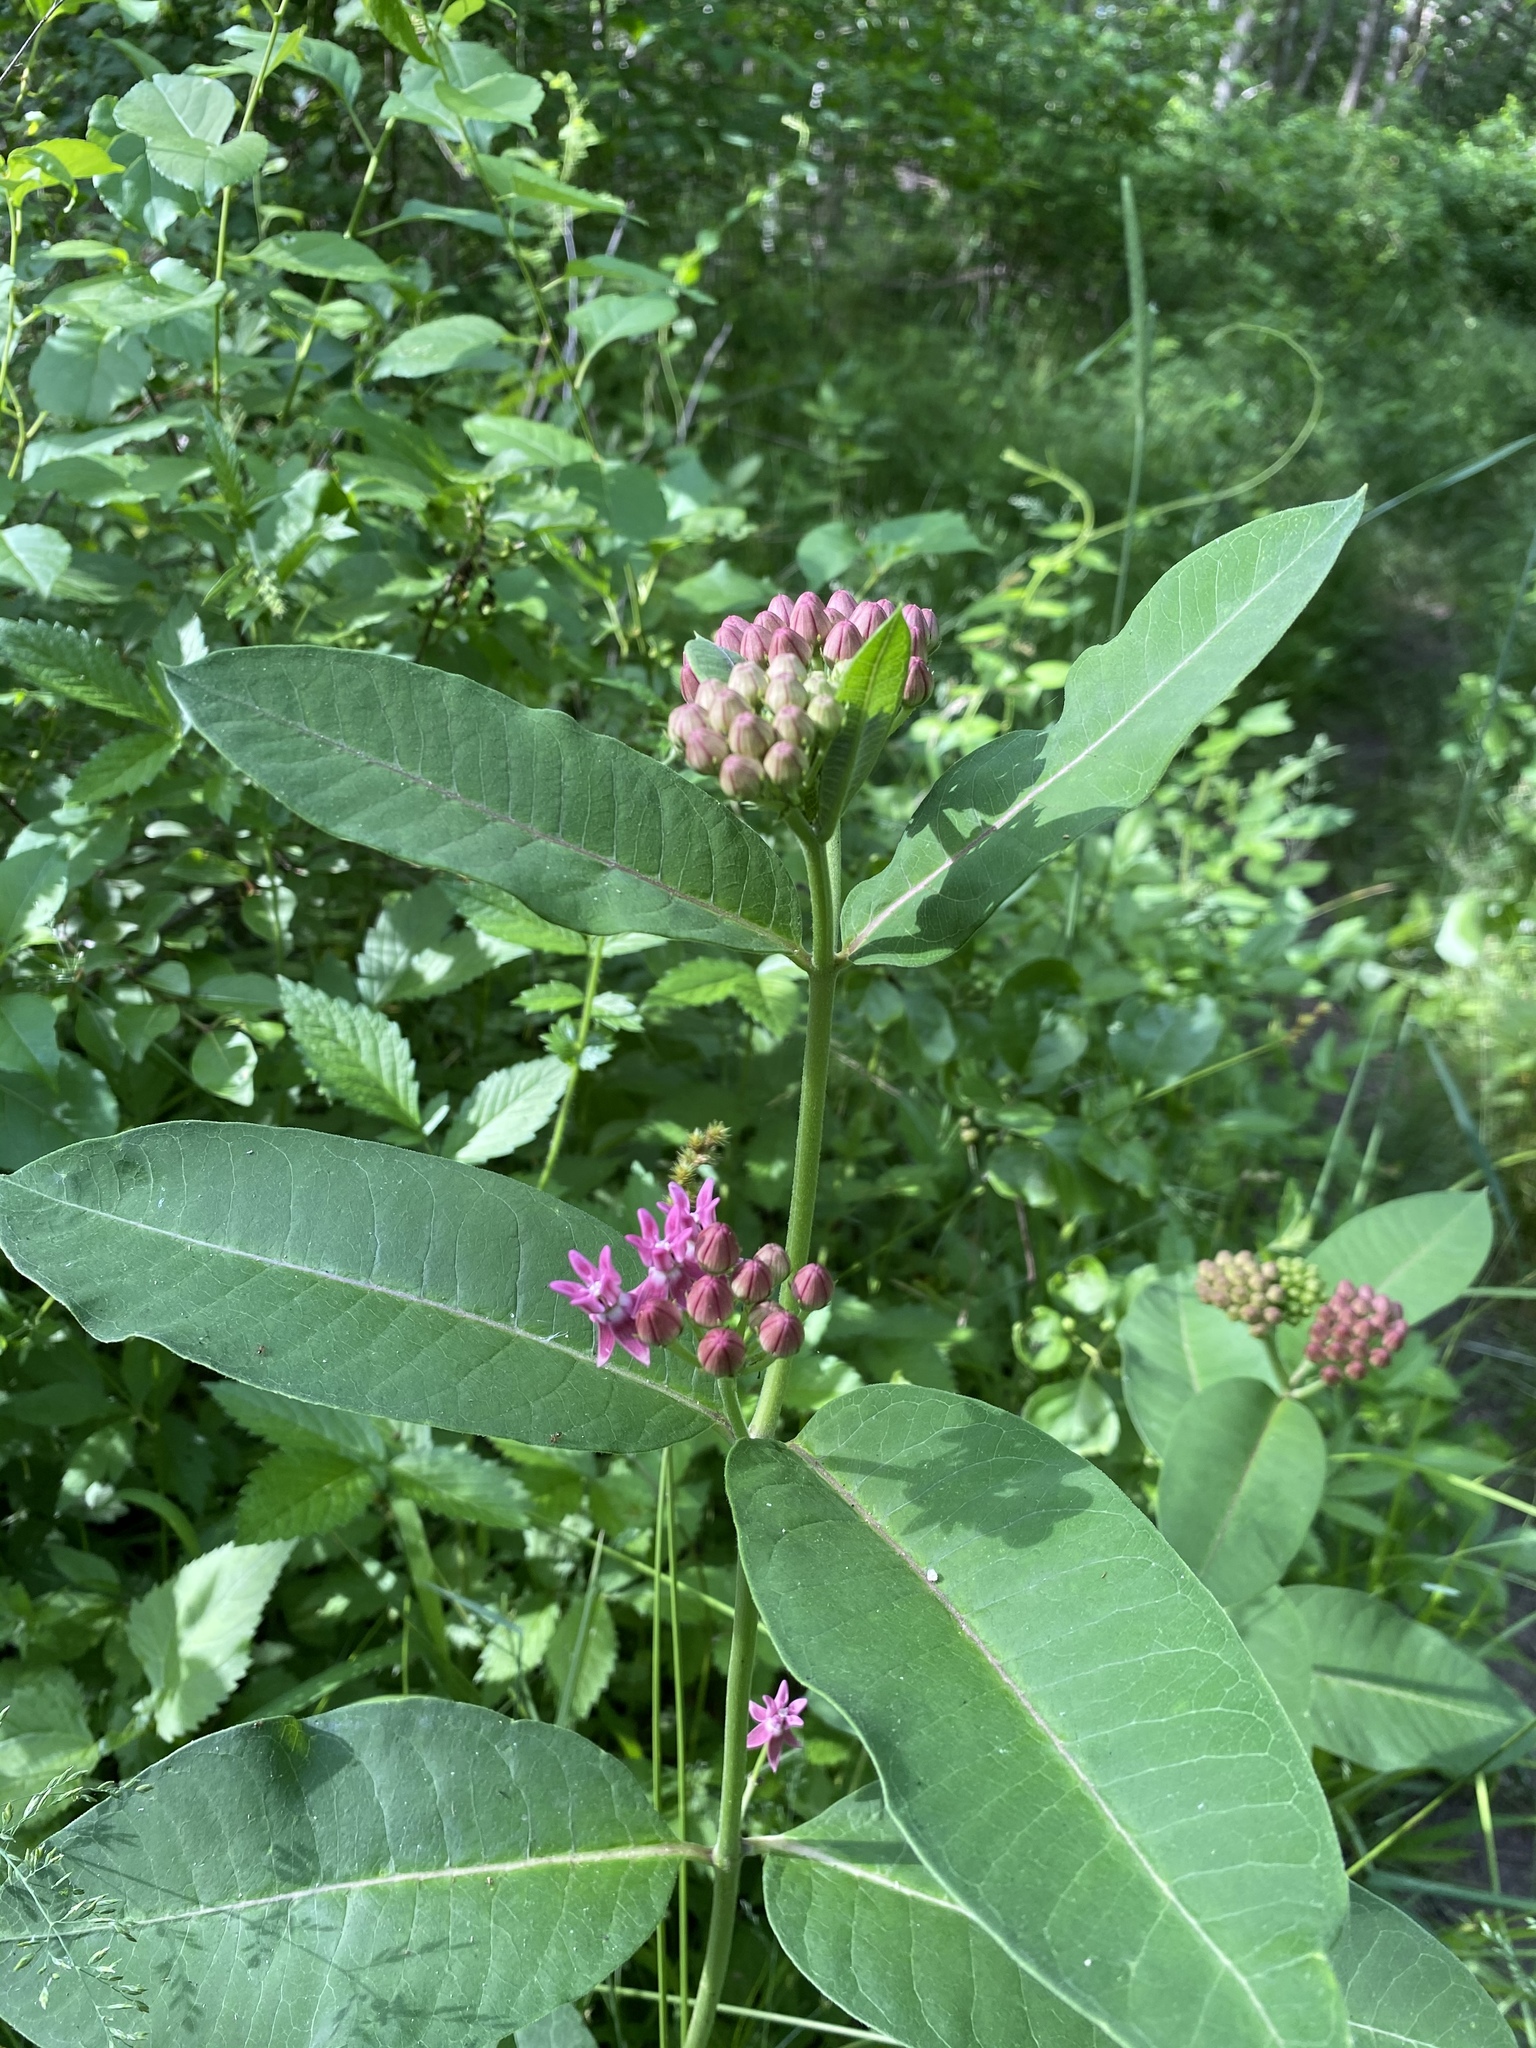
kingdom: Plantae
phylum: Tracheophyta
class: Magnoliopsida
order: Gentianales
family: Apocynaceae
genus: Asclepias
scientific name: Asclepias purpurascens
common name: Purple milkweed
